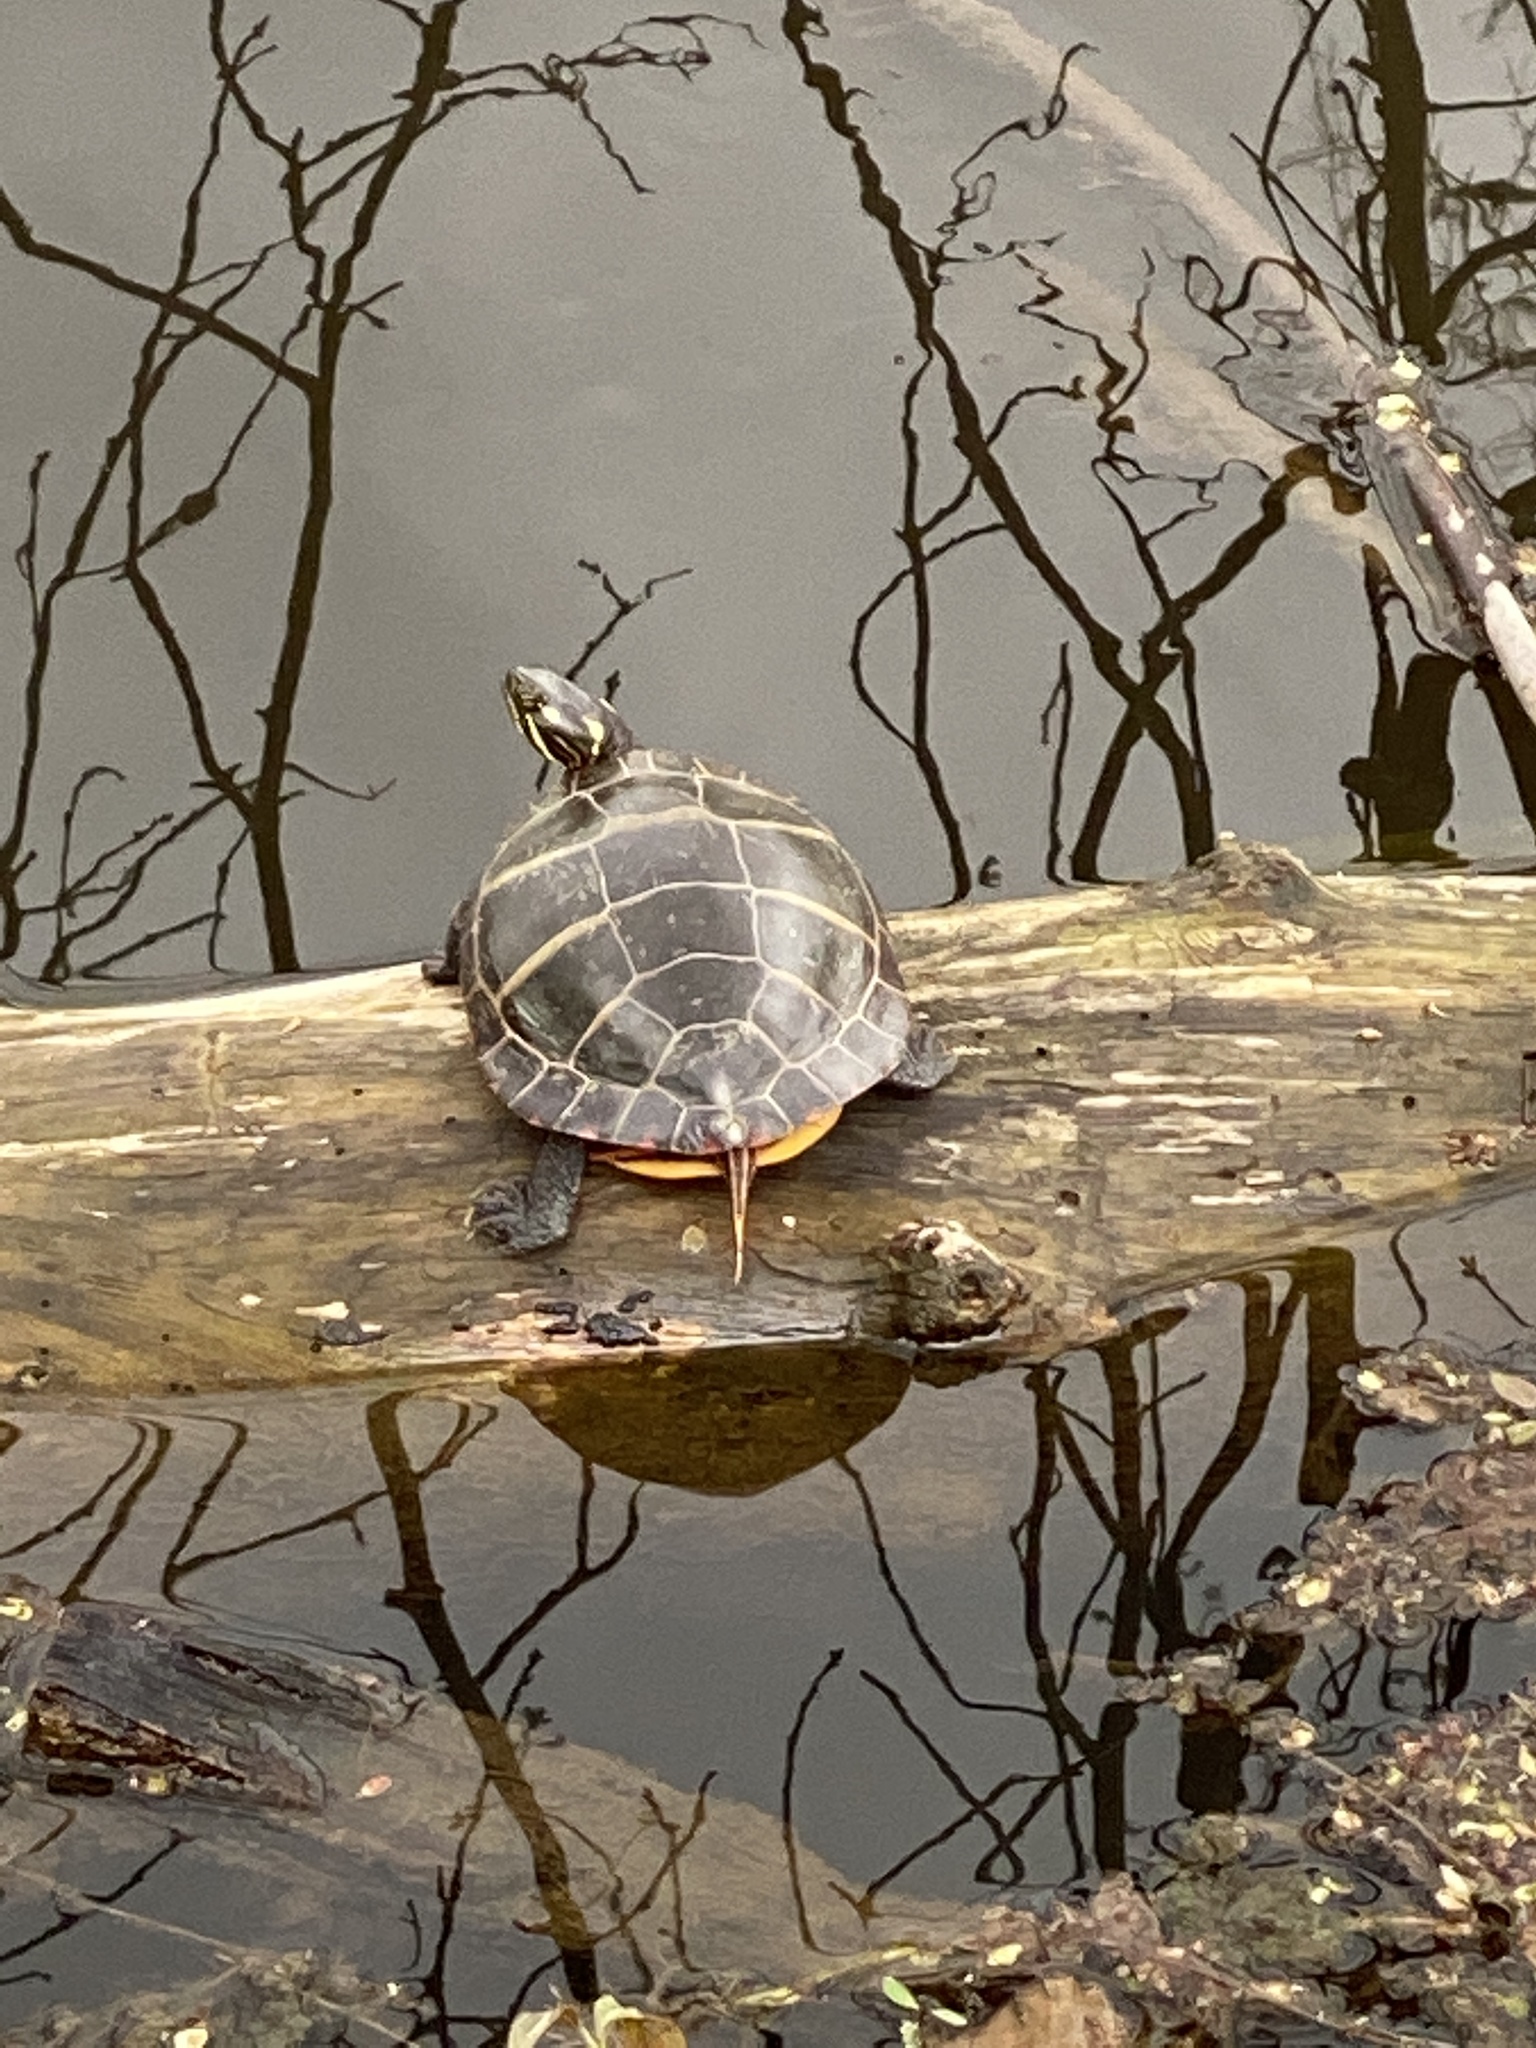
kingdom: Animalia
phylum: Chordata
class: Testudines
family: Emydidae
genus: Chrysemys
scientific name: Chrysemys picta
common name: Painted turtle
